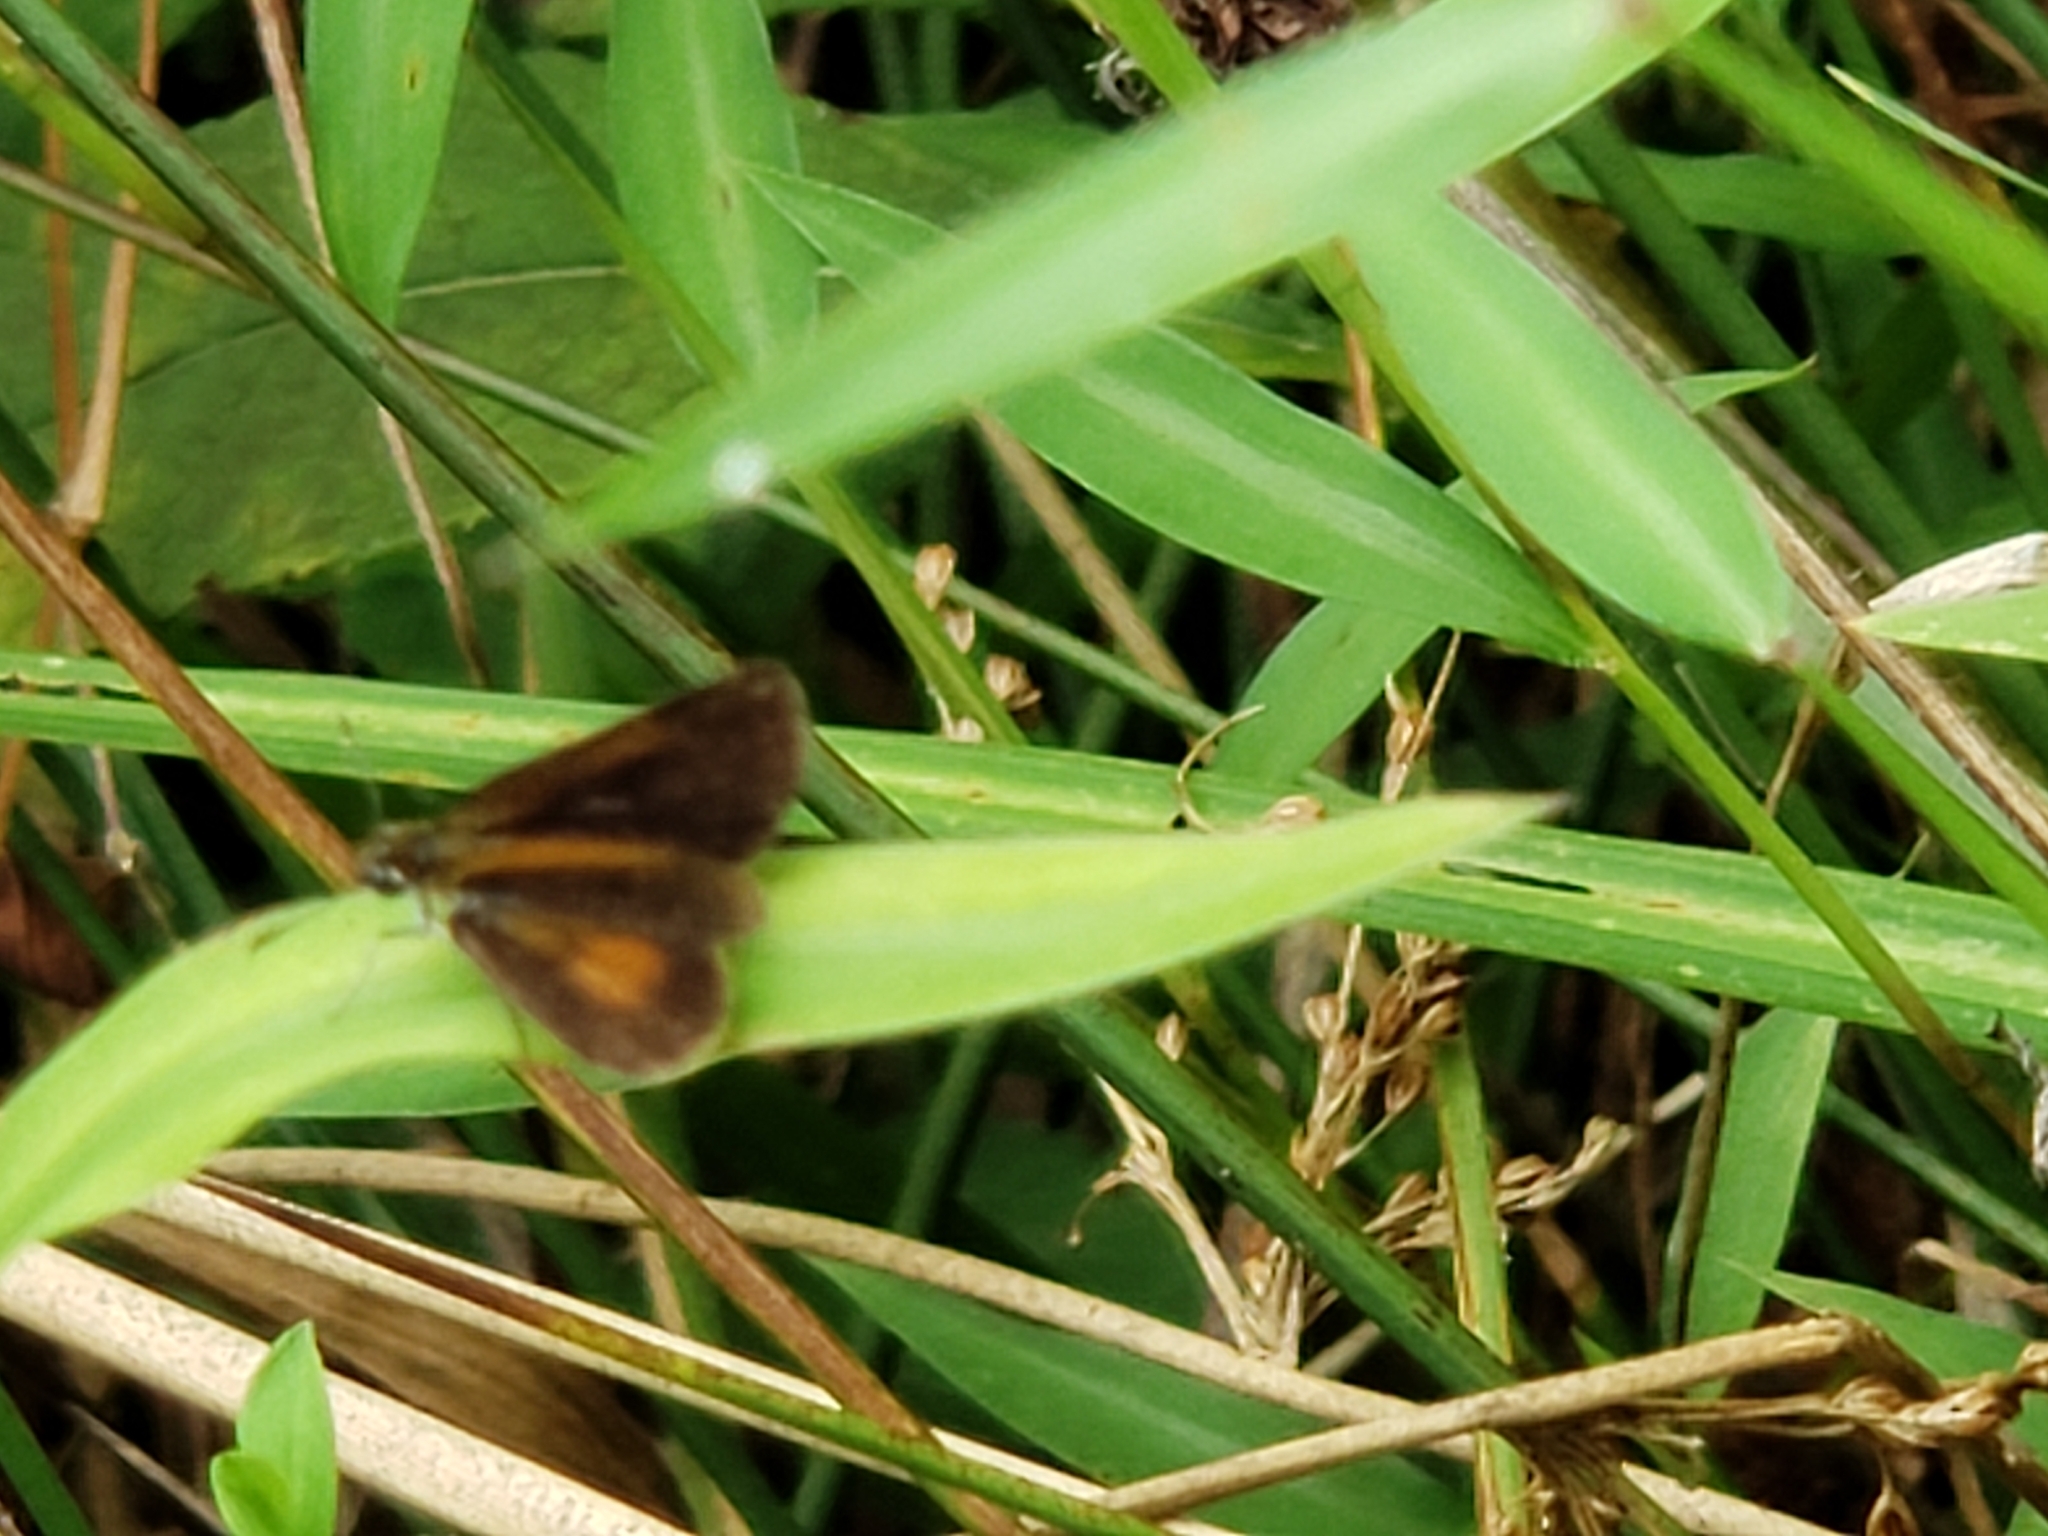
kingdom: Animalia
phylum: Arthropoda
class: Insecta
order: Lepidoptera
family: Hesperiidae
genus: Ancyloxypha
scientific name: Ancyloxypha numitor
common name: Least skipper
